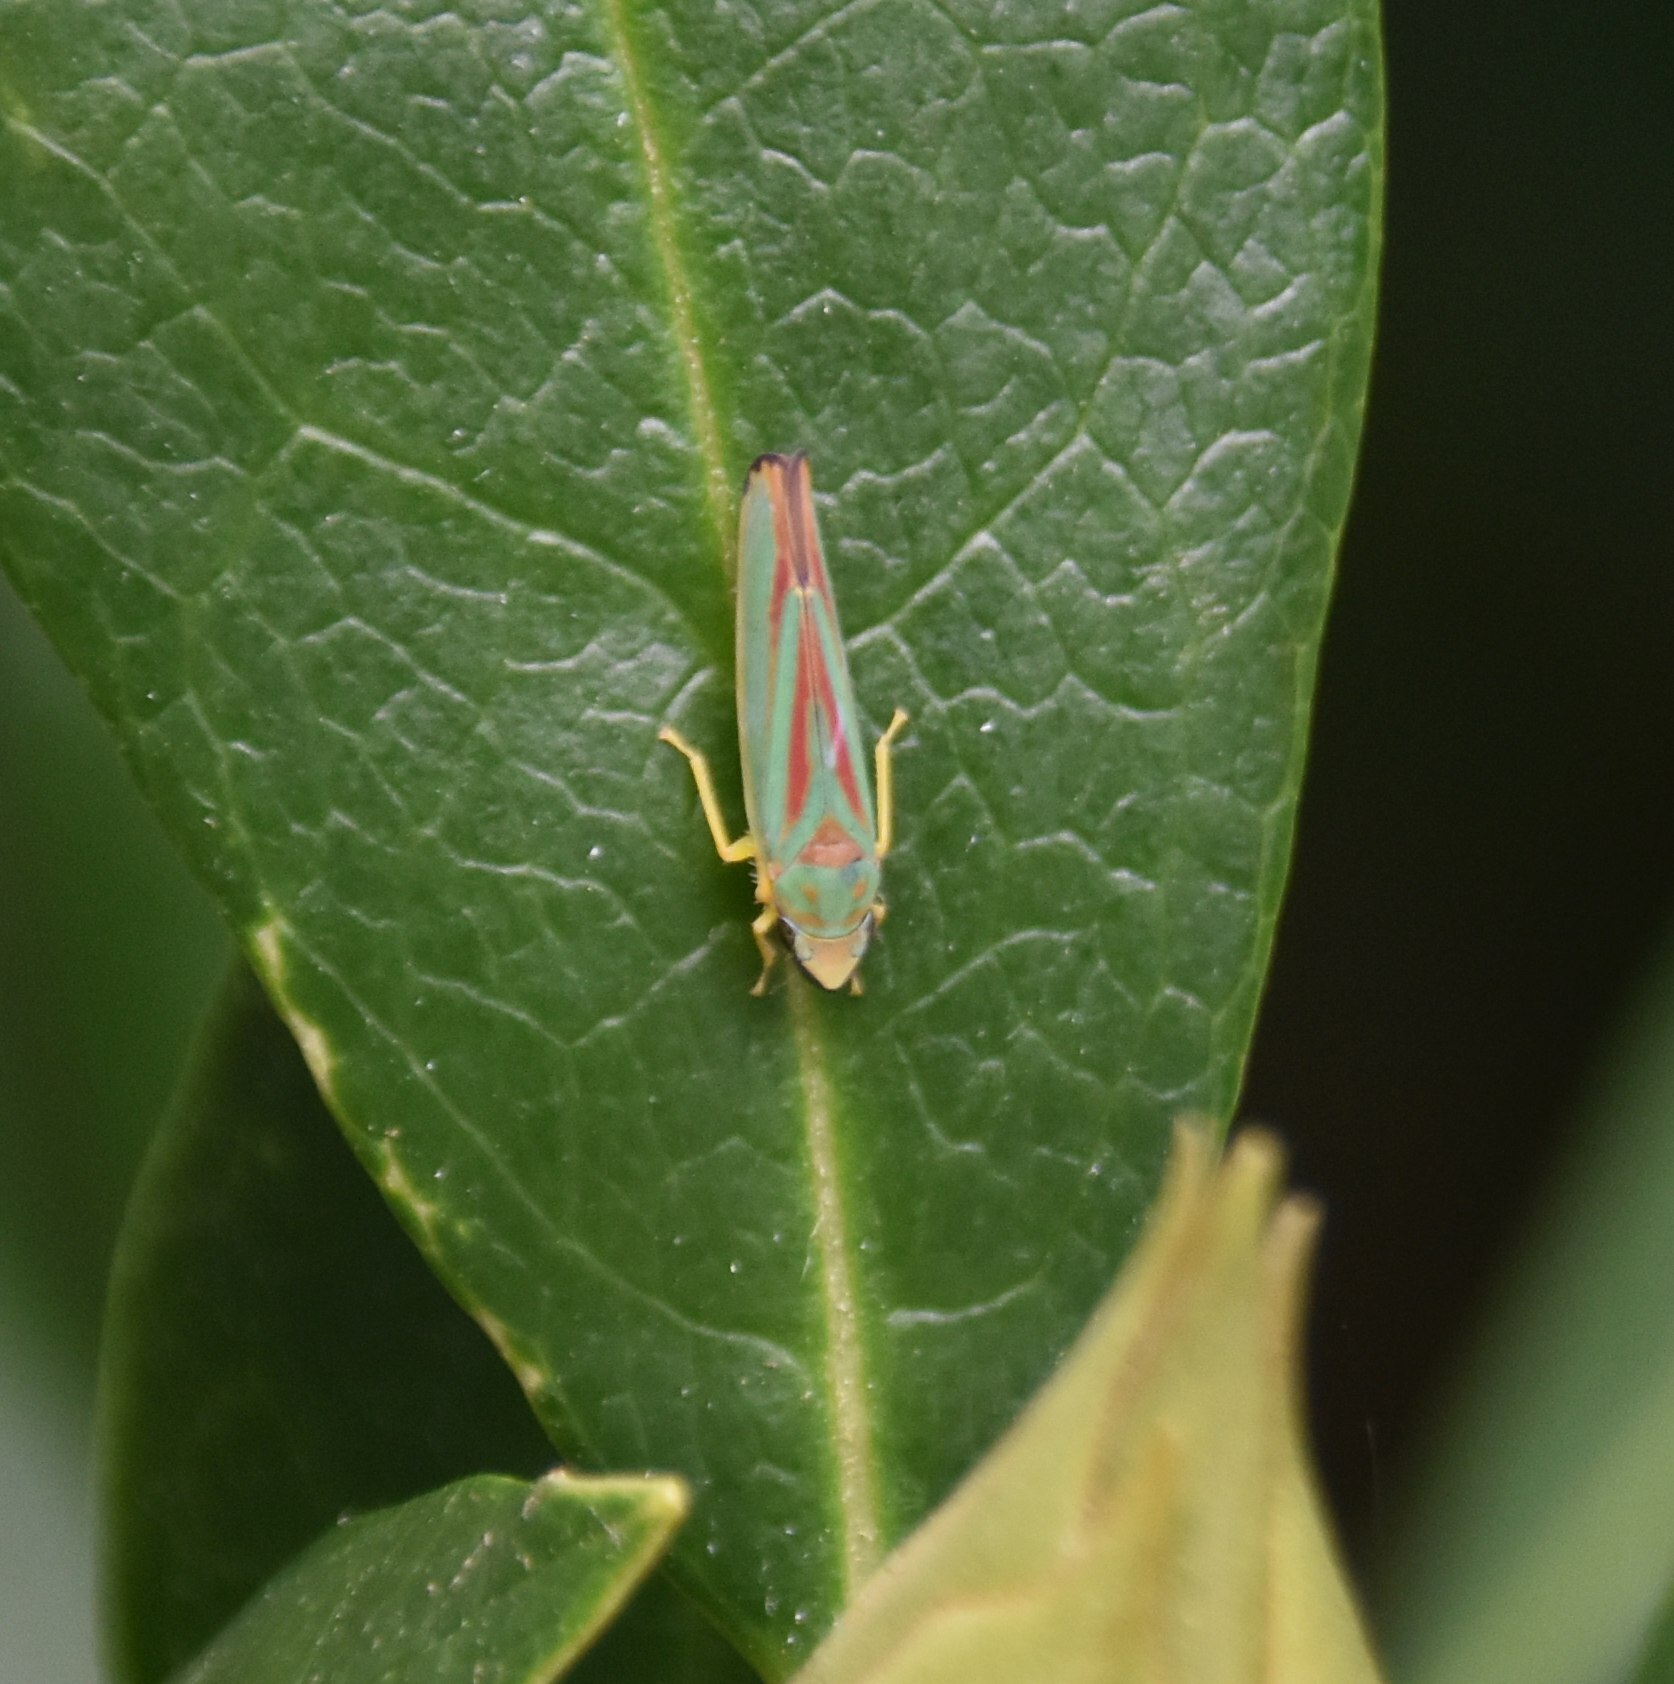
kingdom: Animalia
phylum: Arthropoda
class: Insecta
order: Hemiptera
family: Cicadellidae
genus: Graphocephala
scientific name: Graphocephala fennahi
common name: Rhododendron leafhopper
